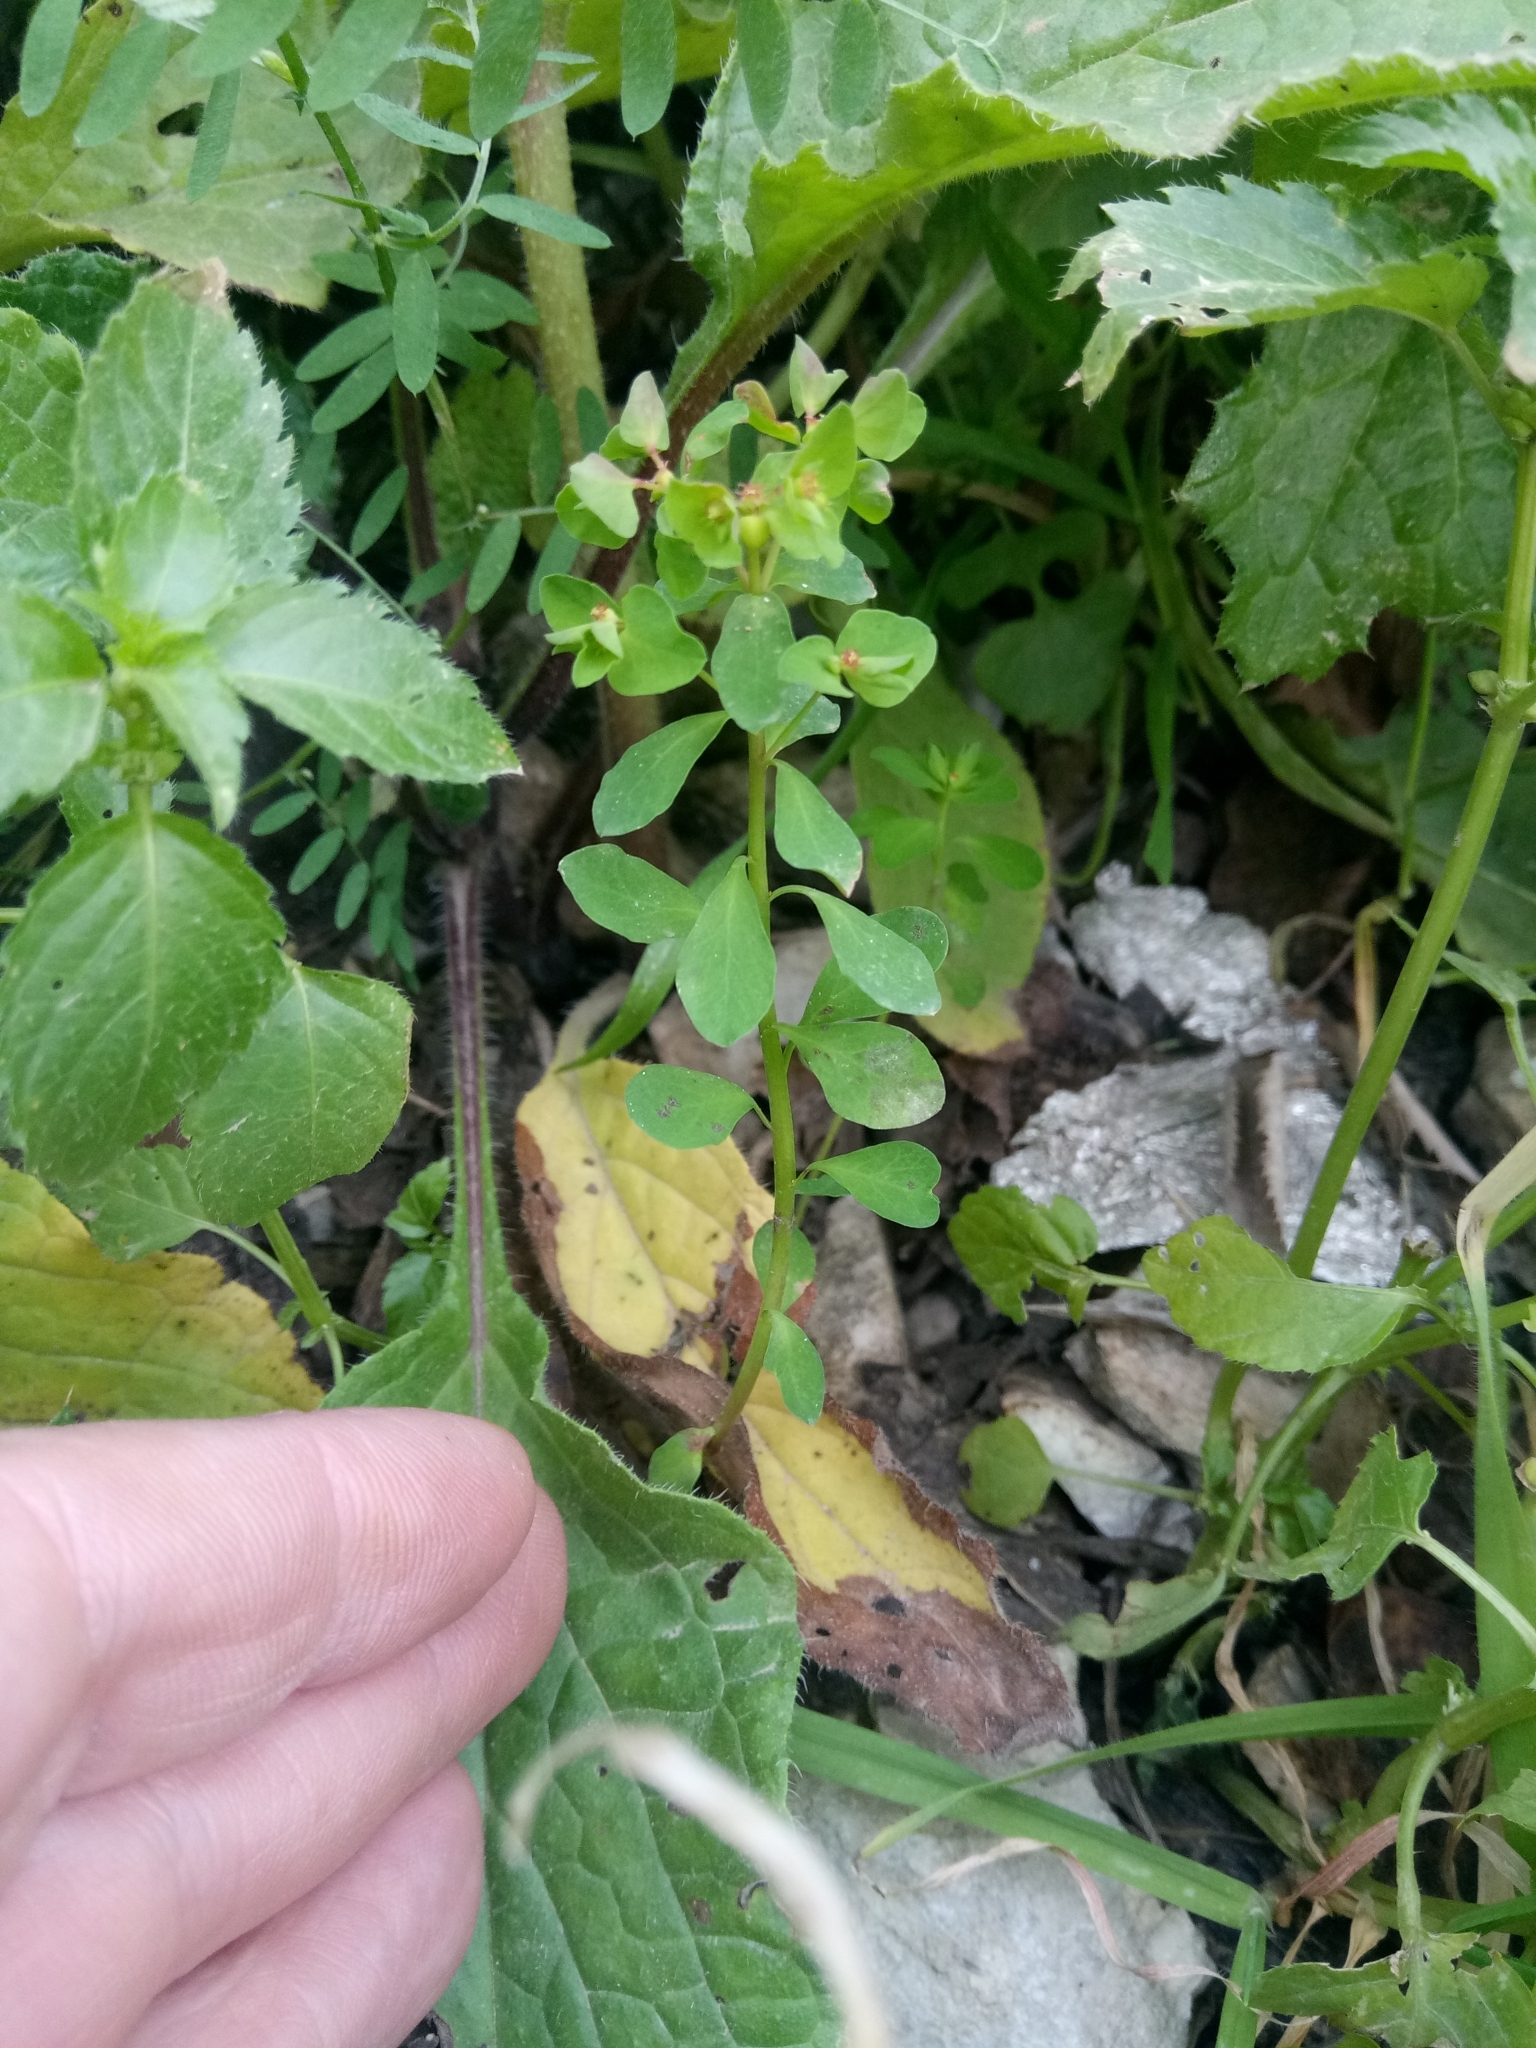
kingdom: Plantae
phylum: Tracheophyta
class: Magnoliopsida
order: Malpighiales
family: Euphorbiaceae
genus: Euphorbia
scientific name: Euphorbia peplus
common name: Petty spurge
